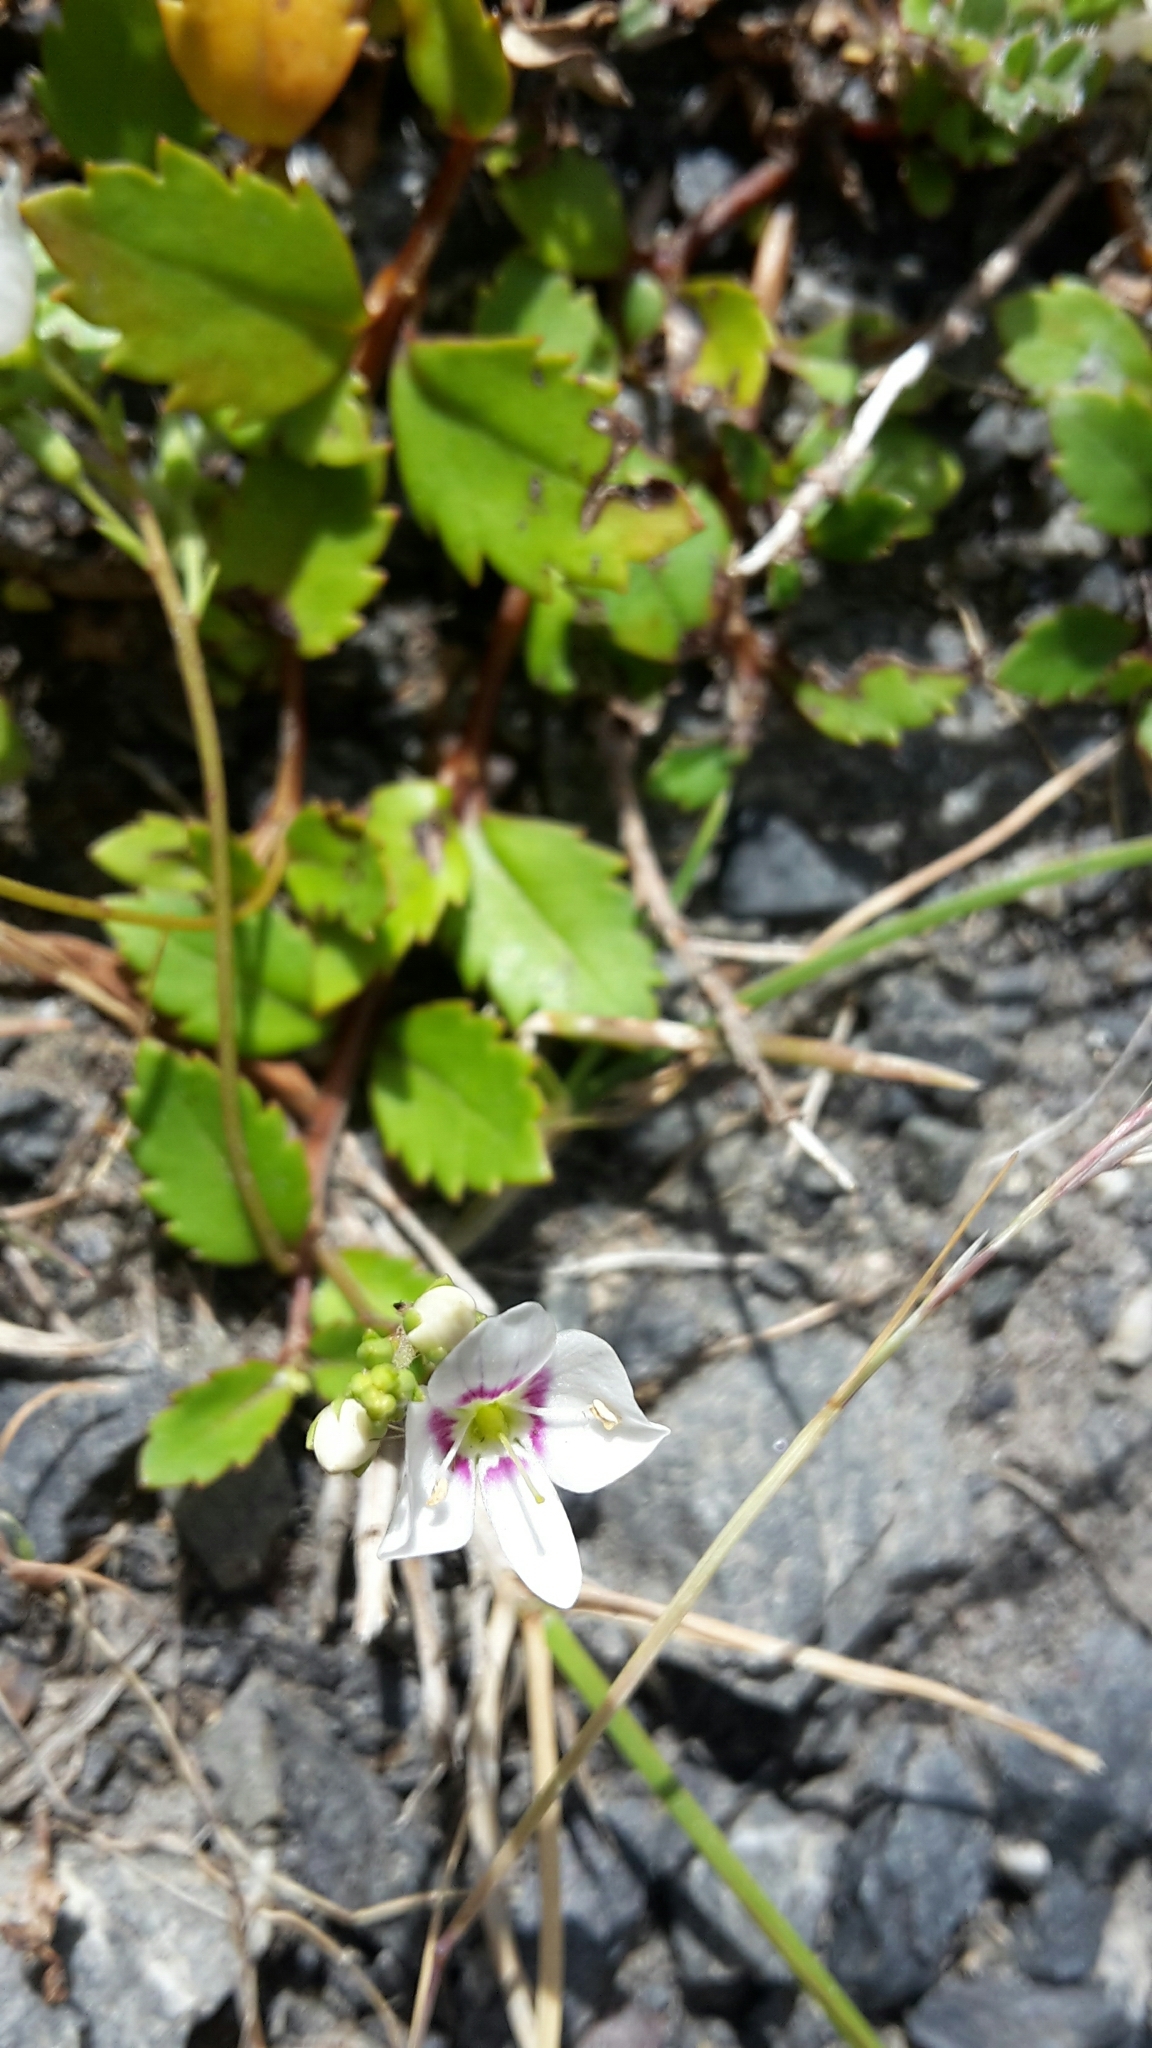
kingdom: Plantae
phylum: Tracheophyta
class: Magnoliopsida
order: Lamiales
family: Plantaginaceae
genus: Veronica
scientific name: Veronica lanceolata
